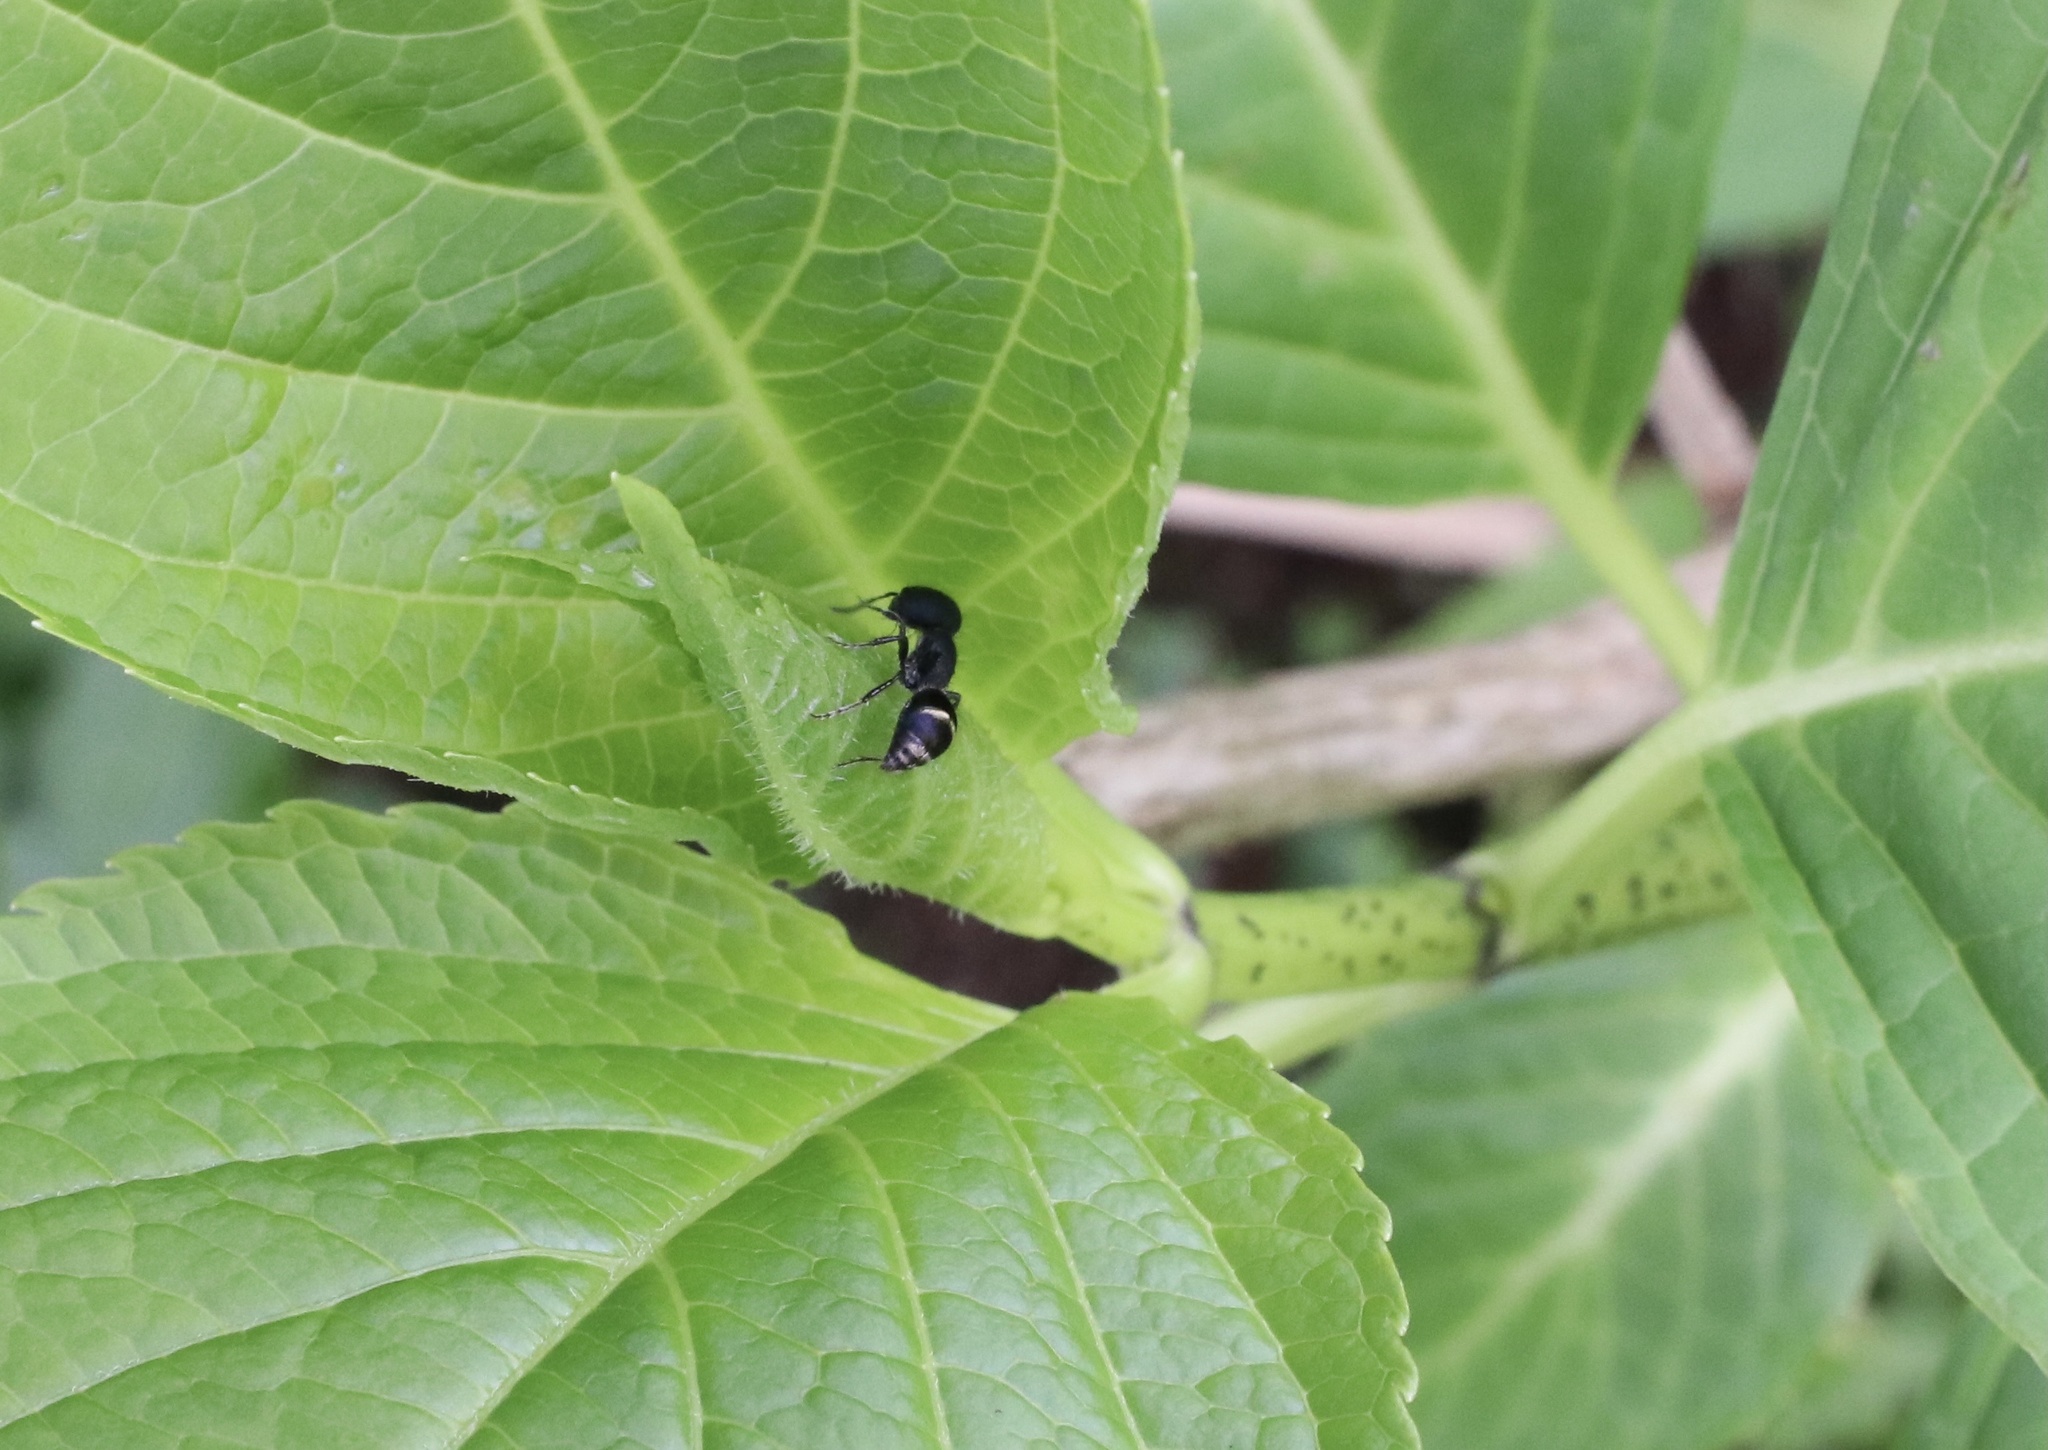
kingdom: Animalia
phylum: Arthropoda
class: Insecta
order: Hymenoptera
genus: Dimorphomutilla
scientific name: Dimorphomutilla
